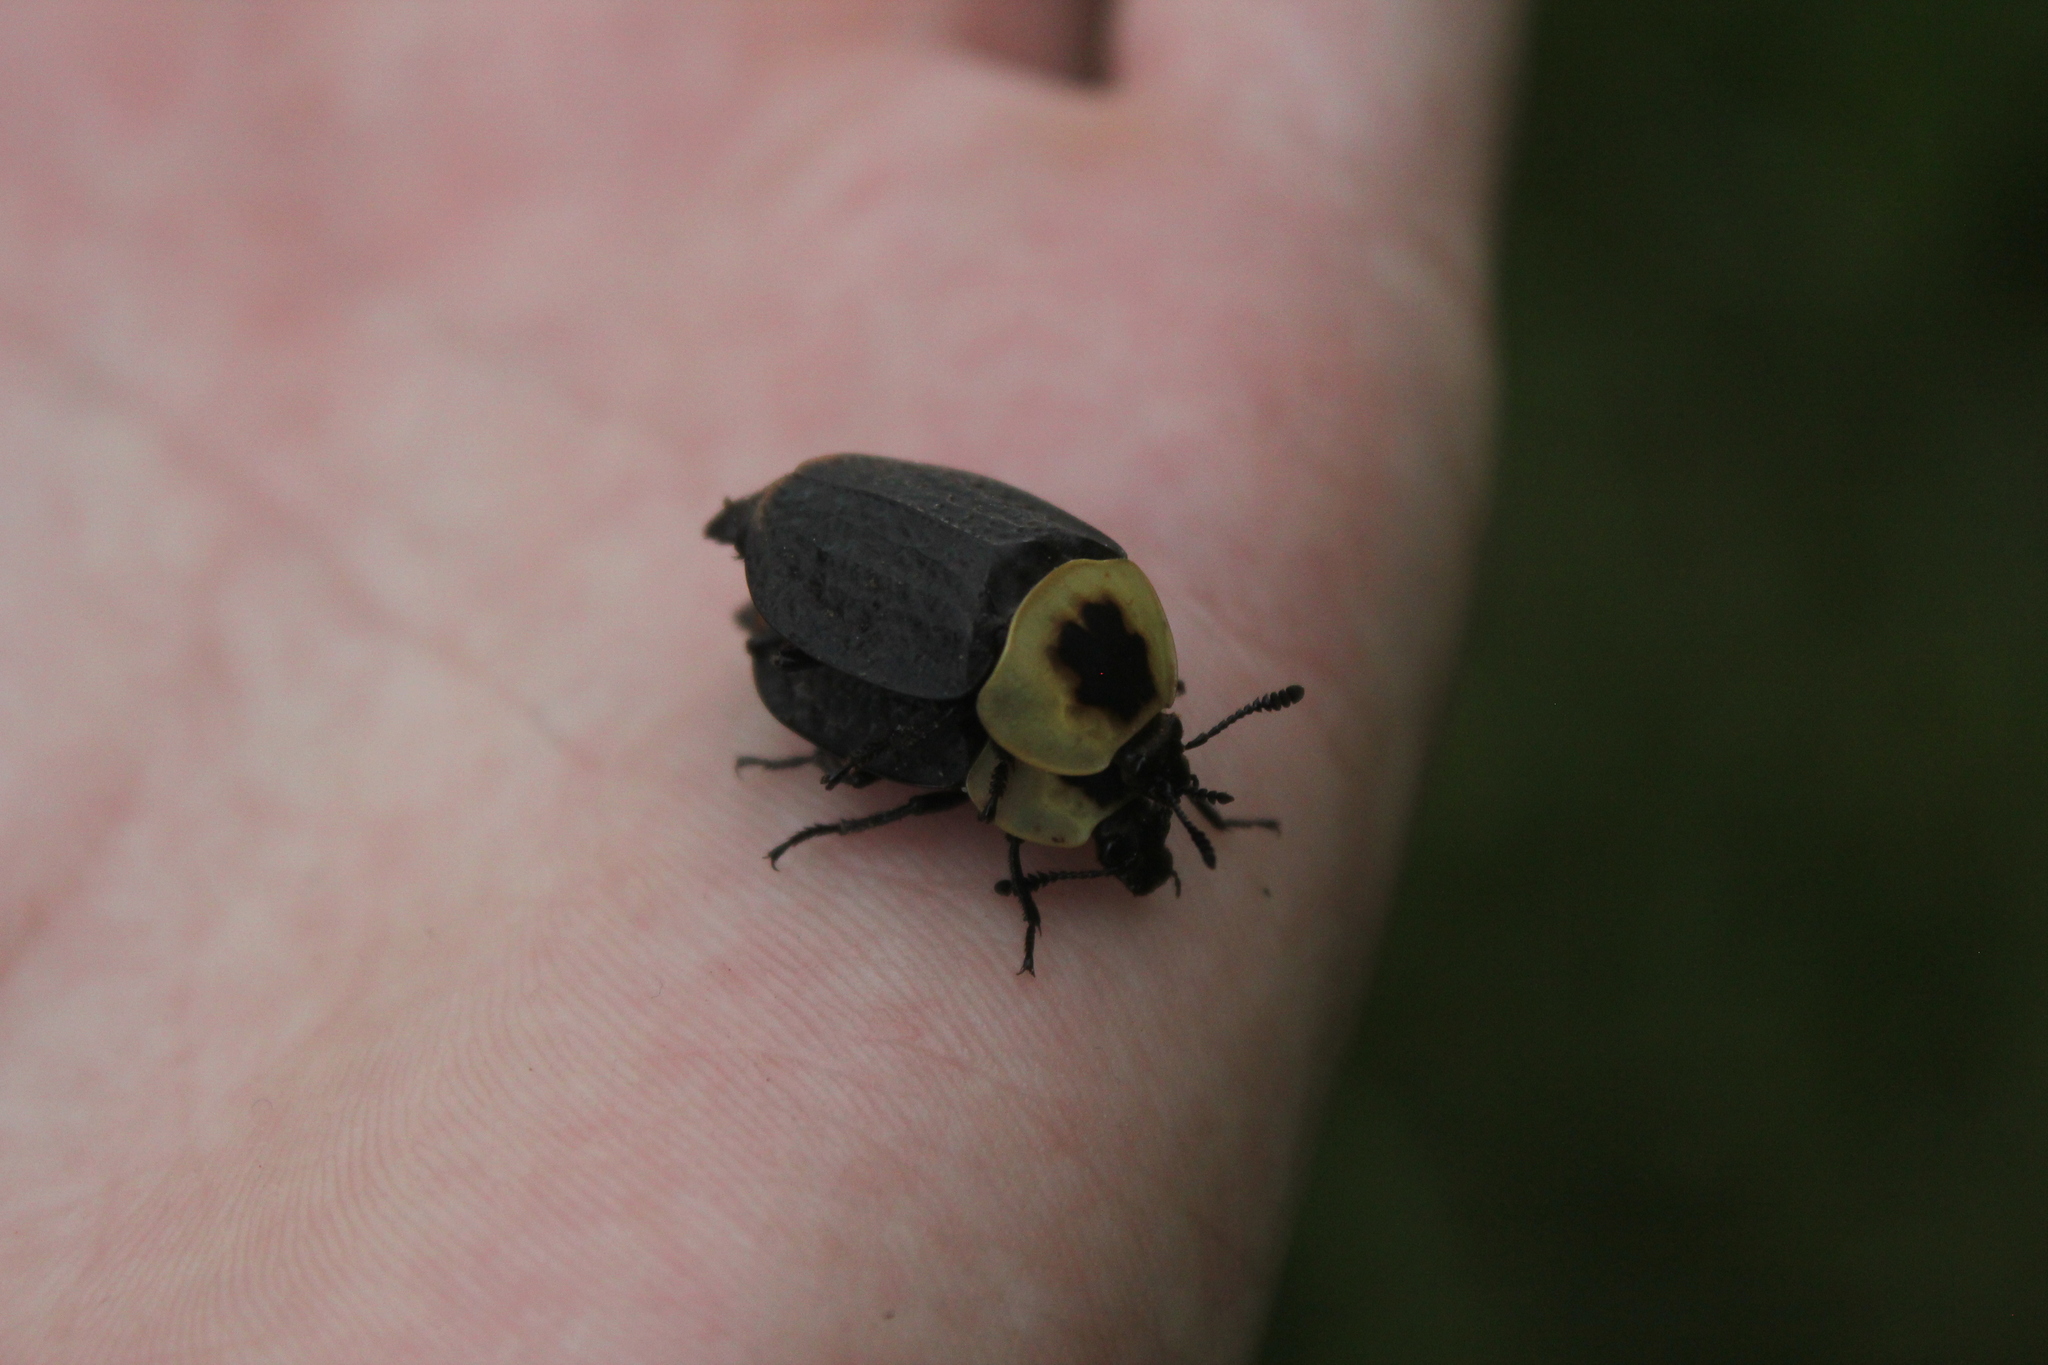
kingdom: Animalia
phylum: Arthropoda
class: Insecta
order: Coleoptera
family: Staphylinidae
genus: Necrophila
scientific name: Necrophila americana
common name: American carrion beetle
